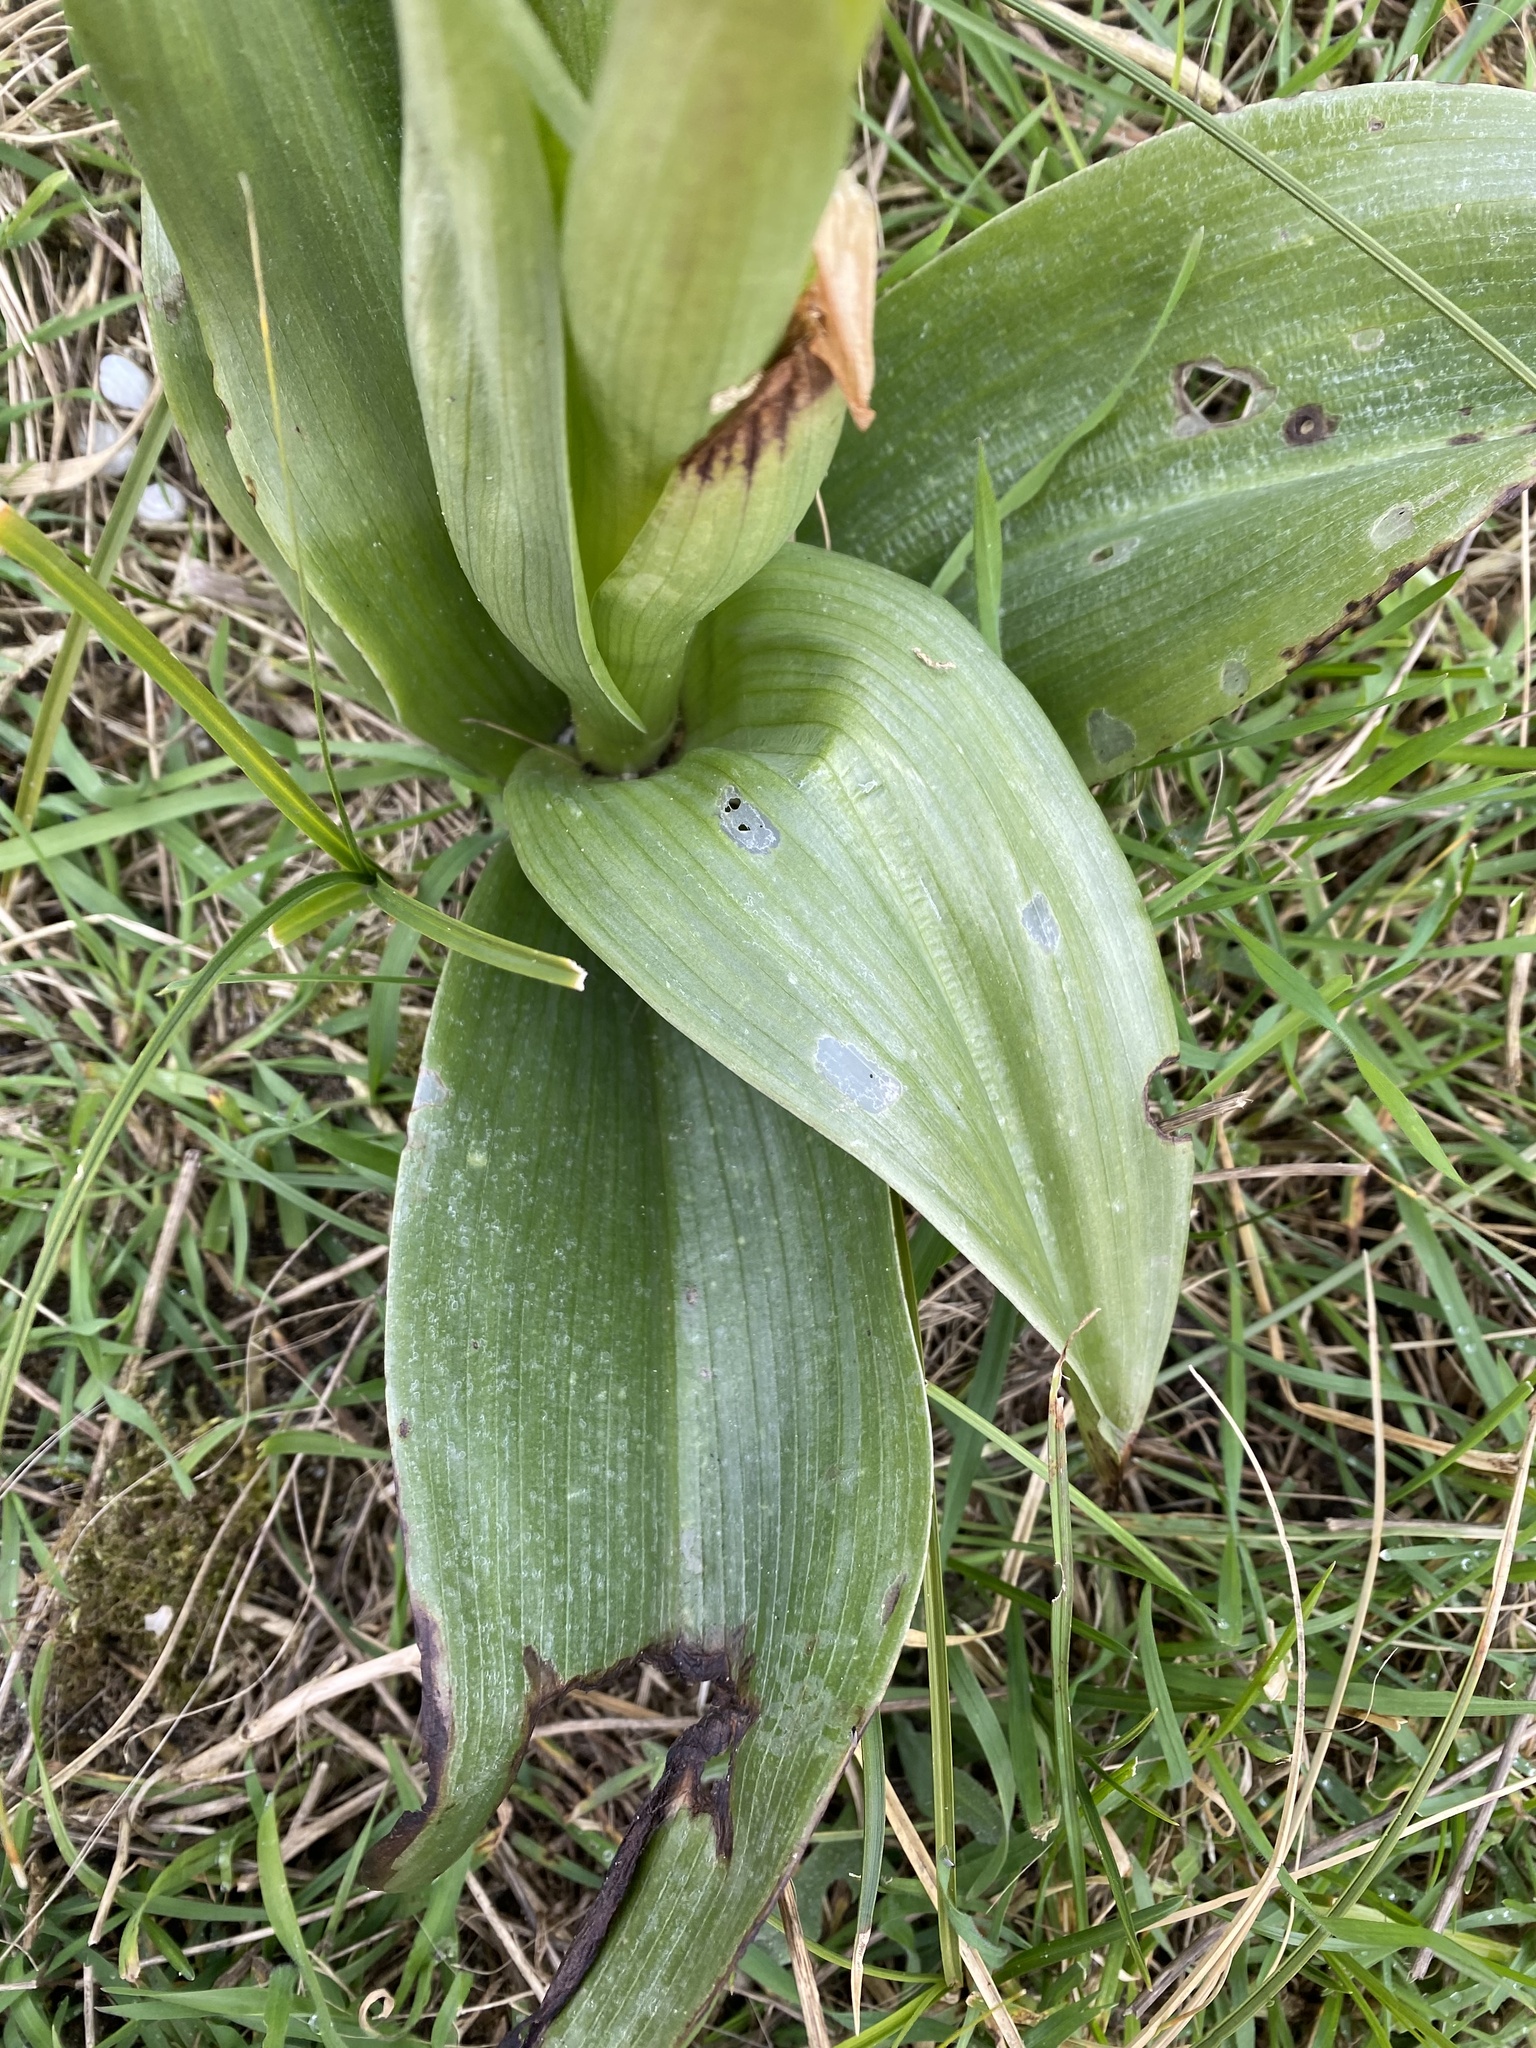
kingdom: Plantae
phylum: Tracheophyta
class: Liliopsida
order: Asparagales
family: Orchidaceae
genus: Himantoglossum
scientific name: Himantoglossum robertianum
